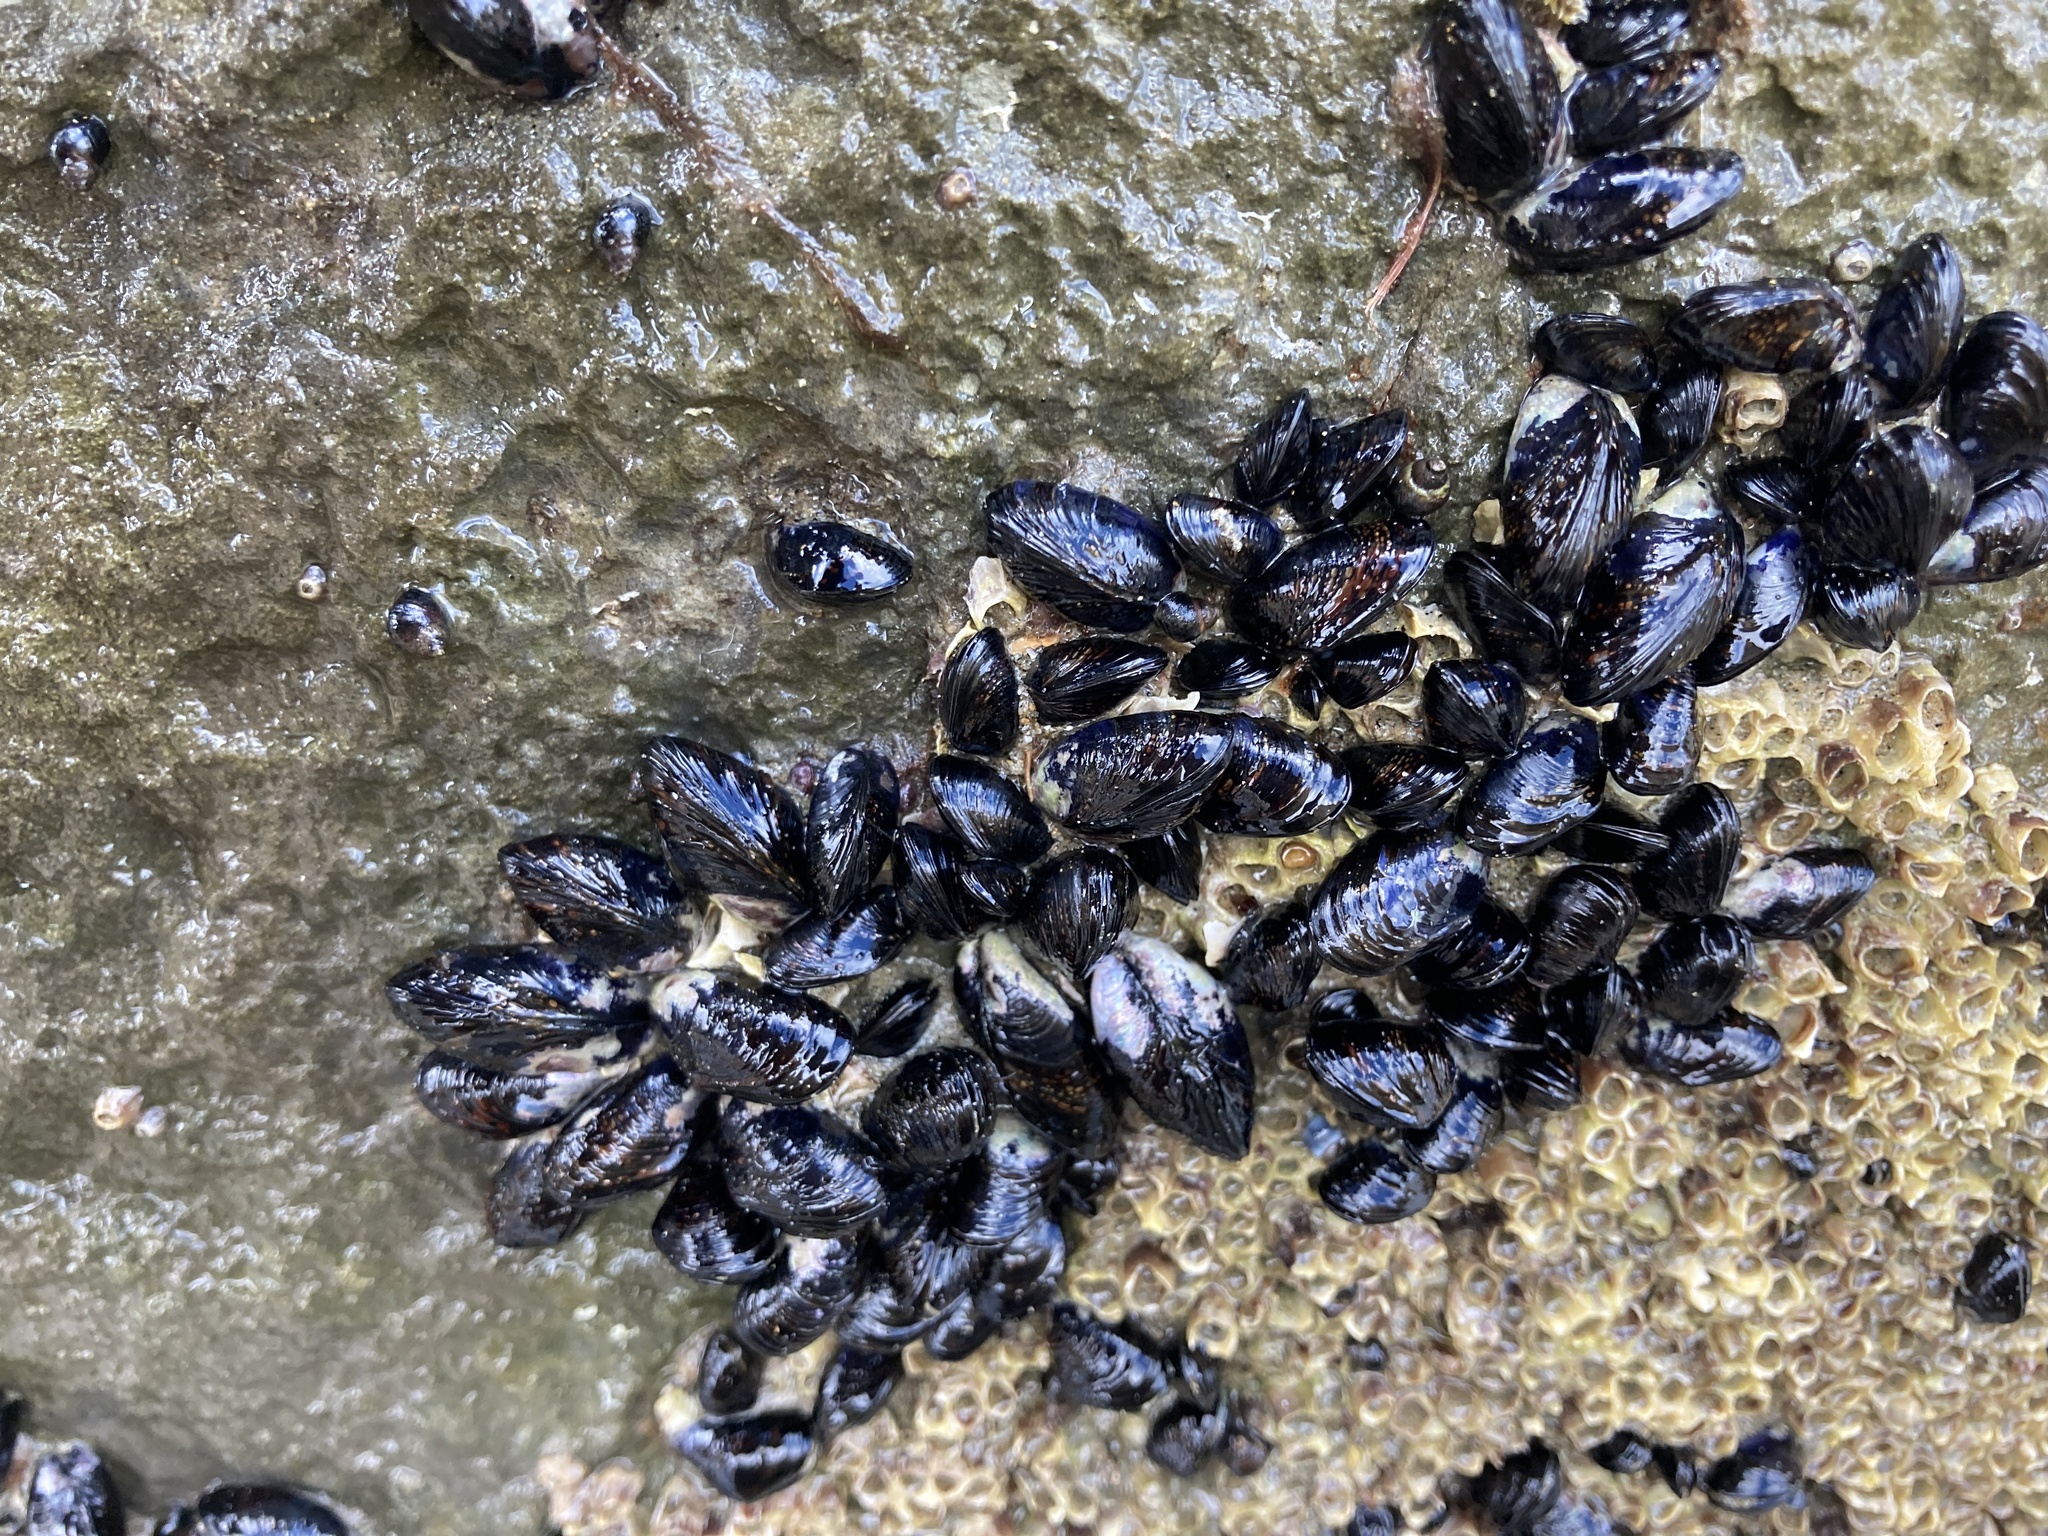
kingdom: Animalia
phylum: Mollusca
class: Bivalvia
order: Mytilida
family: Mytilidae
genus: Xenostrobus
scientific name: Xenostrobus neozelanicus
